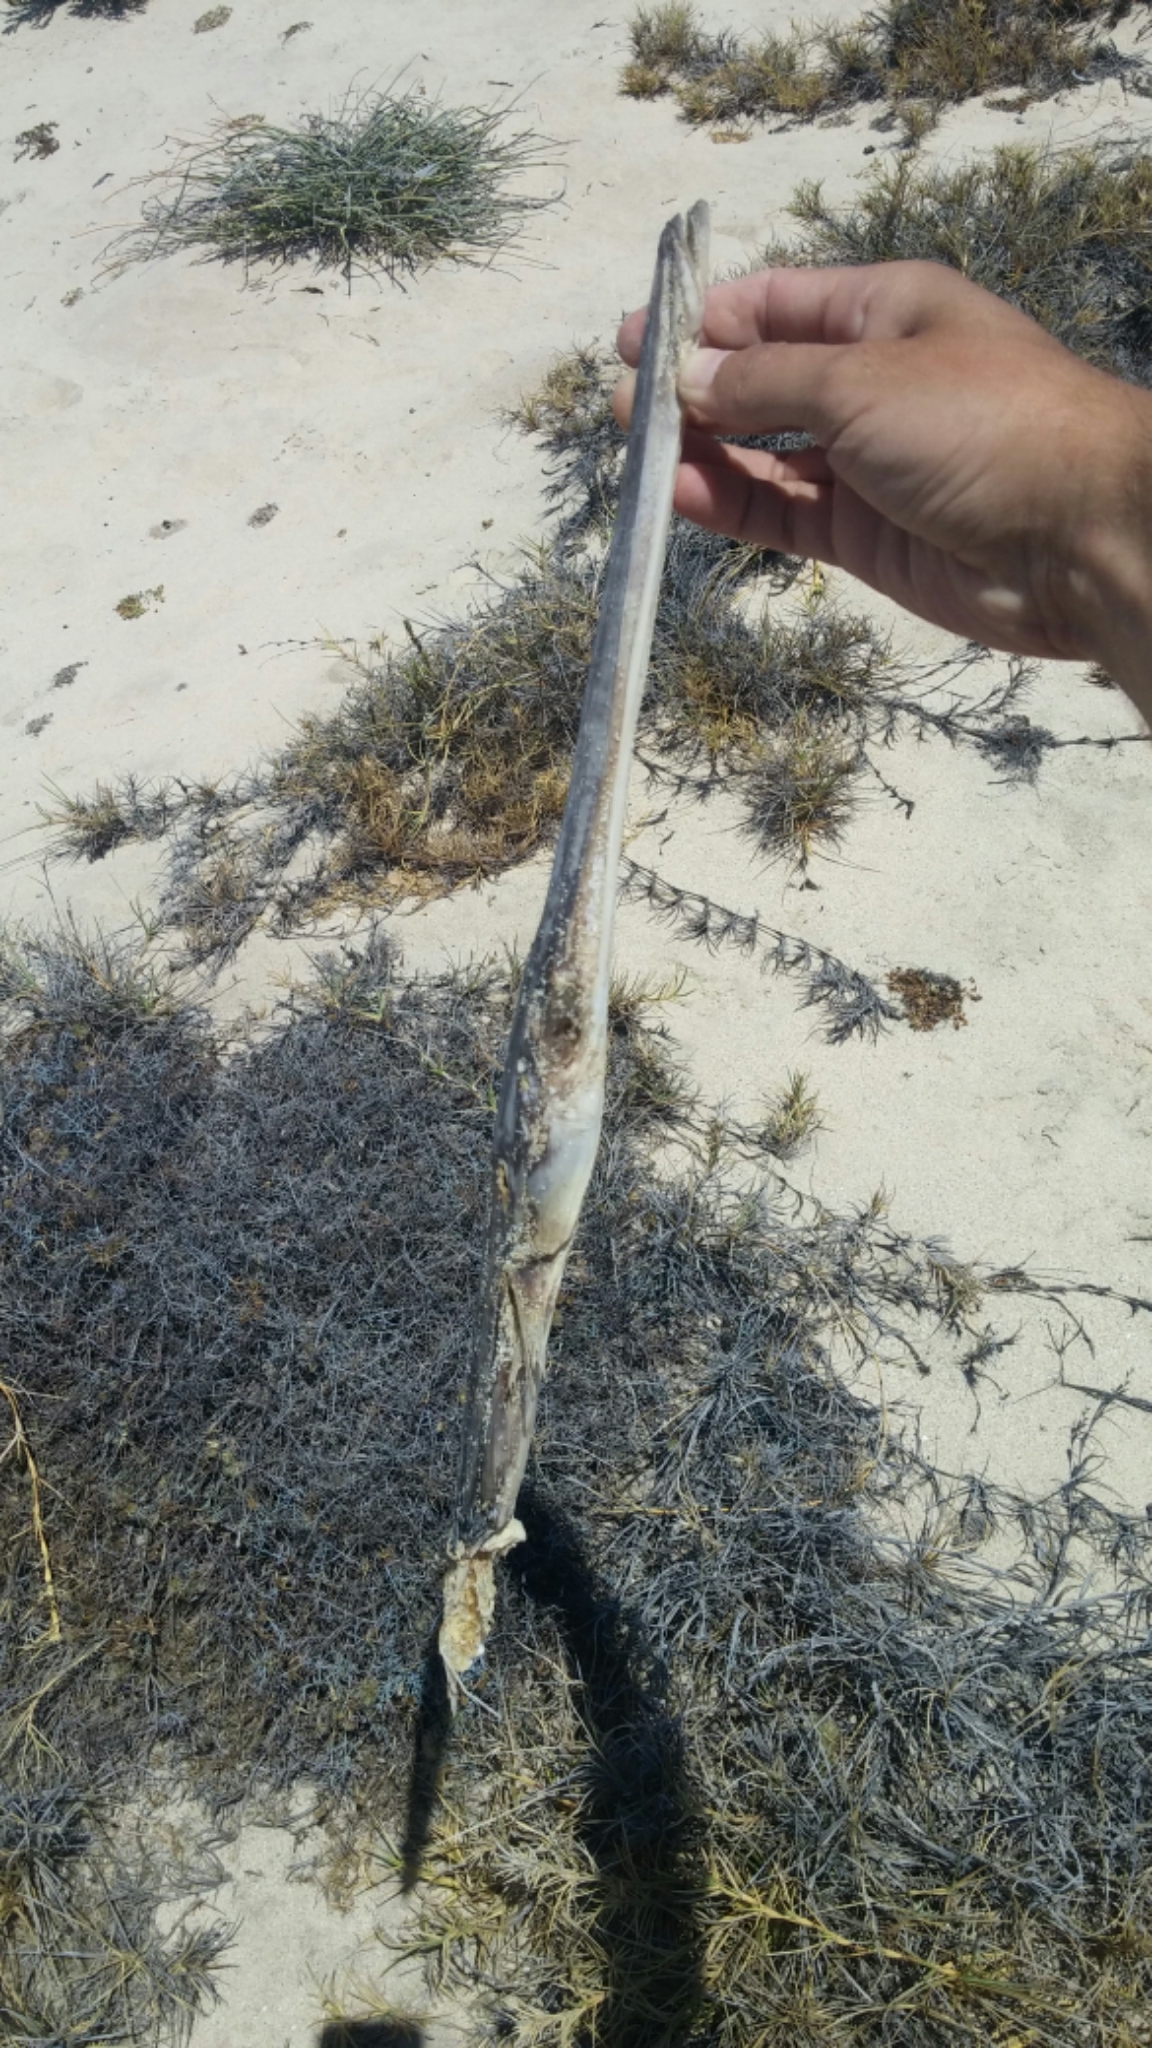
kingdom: Animalia
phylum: Chordata
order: Syngnathiformes
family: Fistulariidae
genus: Fistularia
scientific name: Fistularia commersonii
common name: Bluespotted cornetfish
